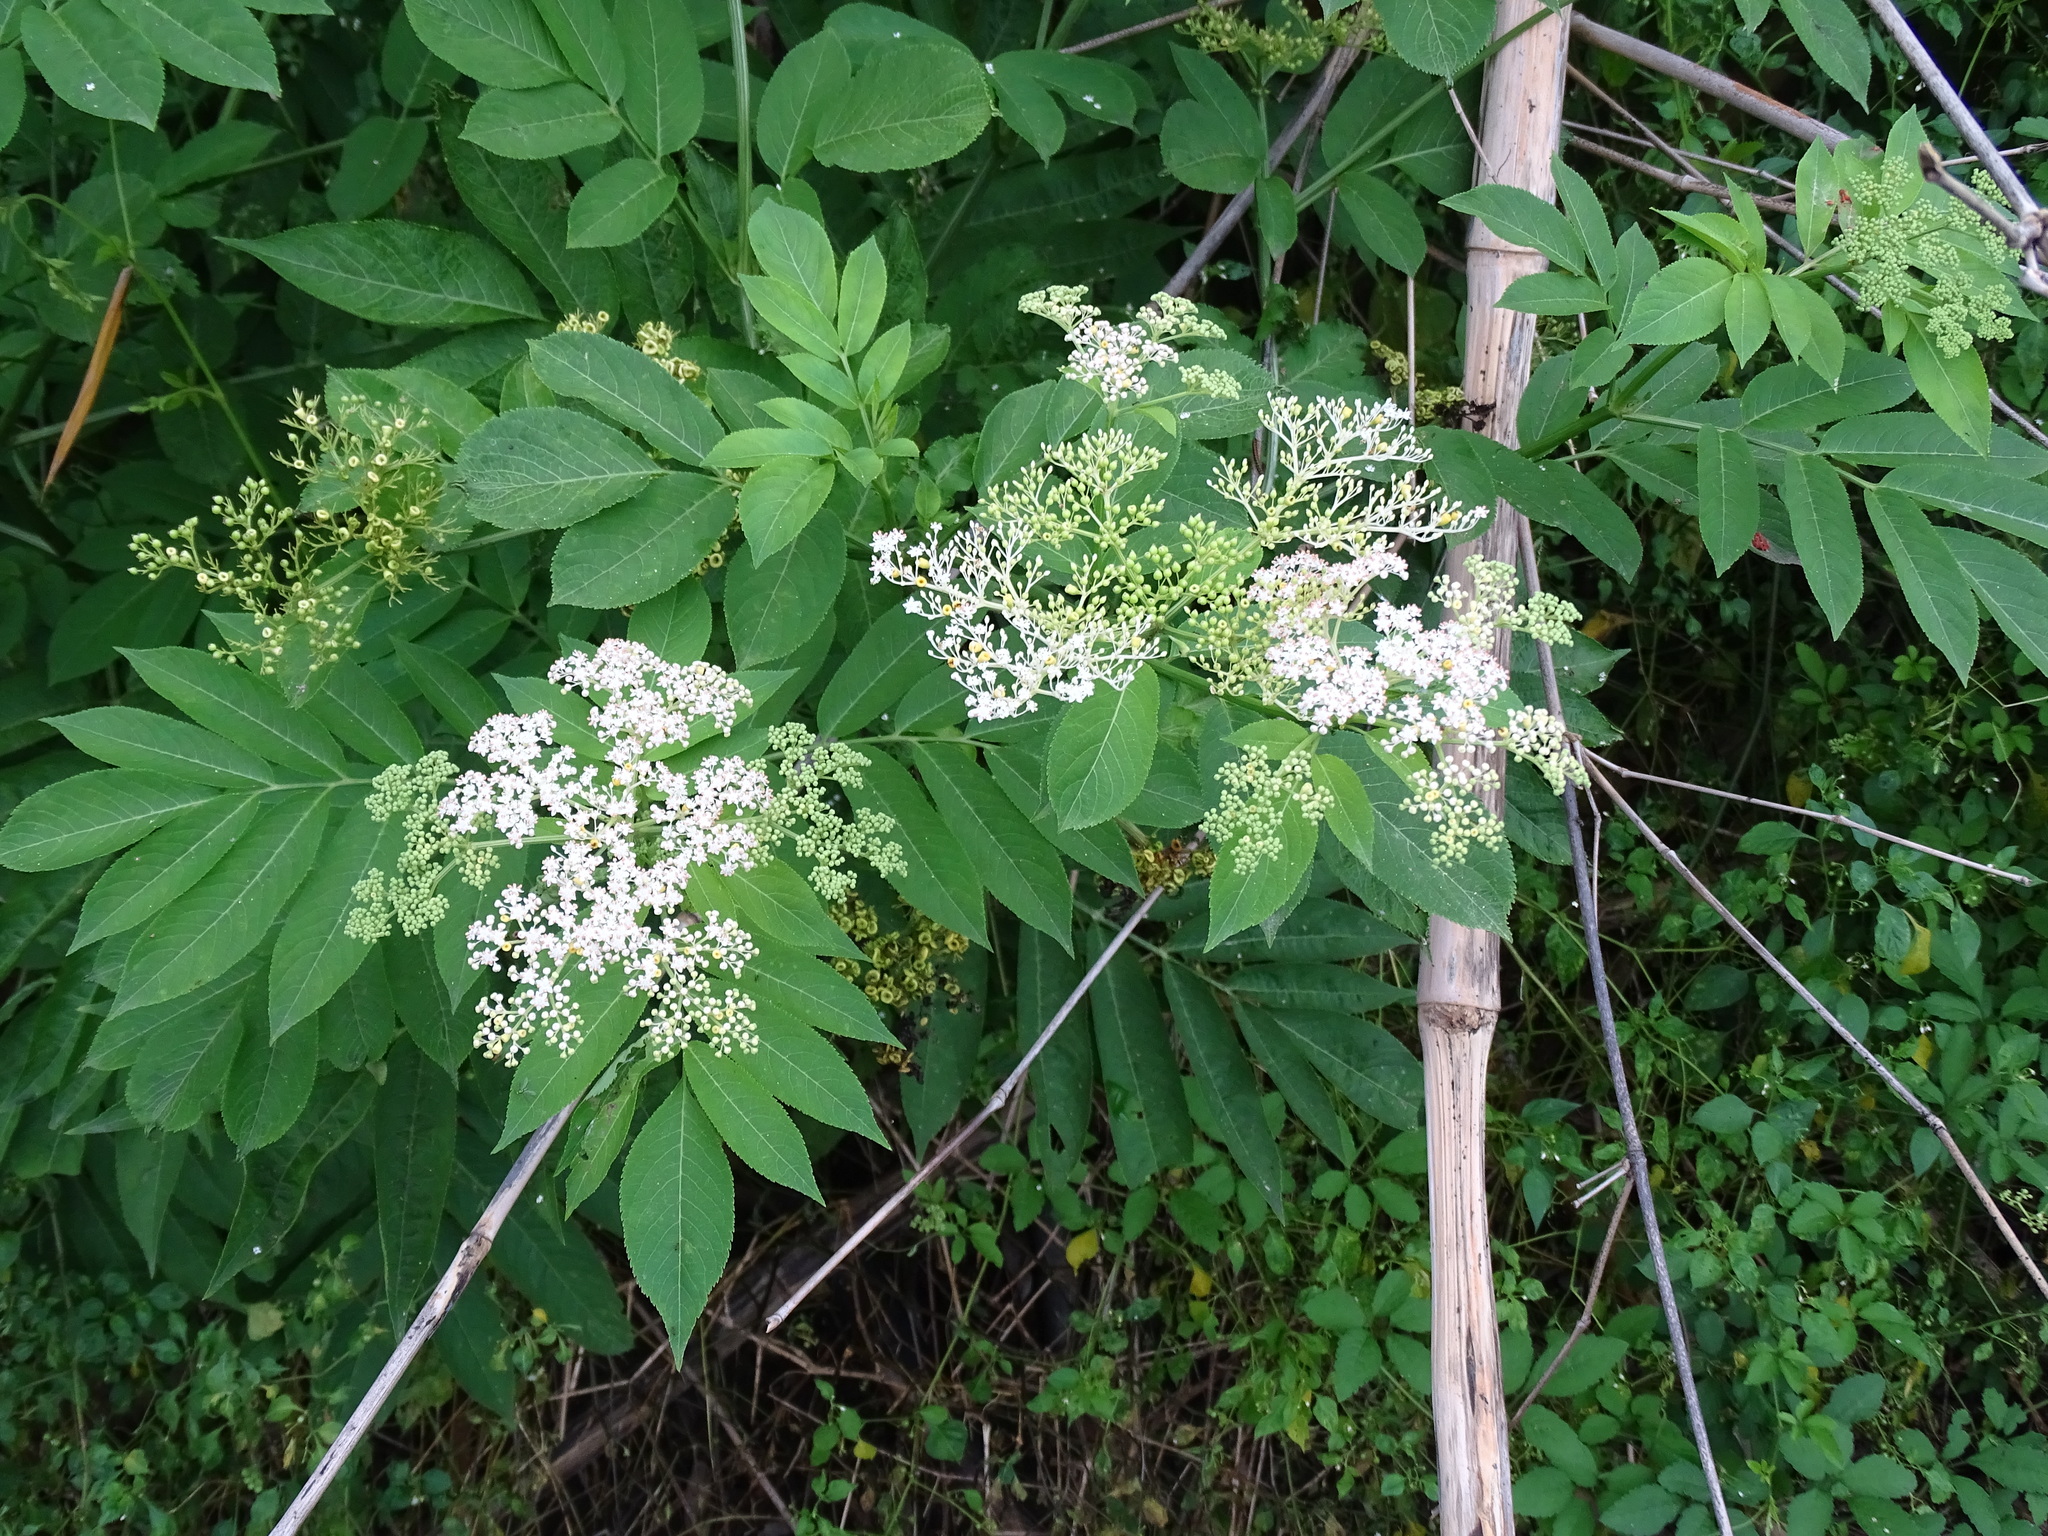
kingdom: Plantae
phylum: Tracheophyta
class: Magnoliopsida
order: Dipsacales
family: Viburnaceae
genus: Sambucus
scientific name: Sambucus javanica
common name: Chinese elder
